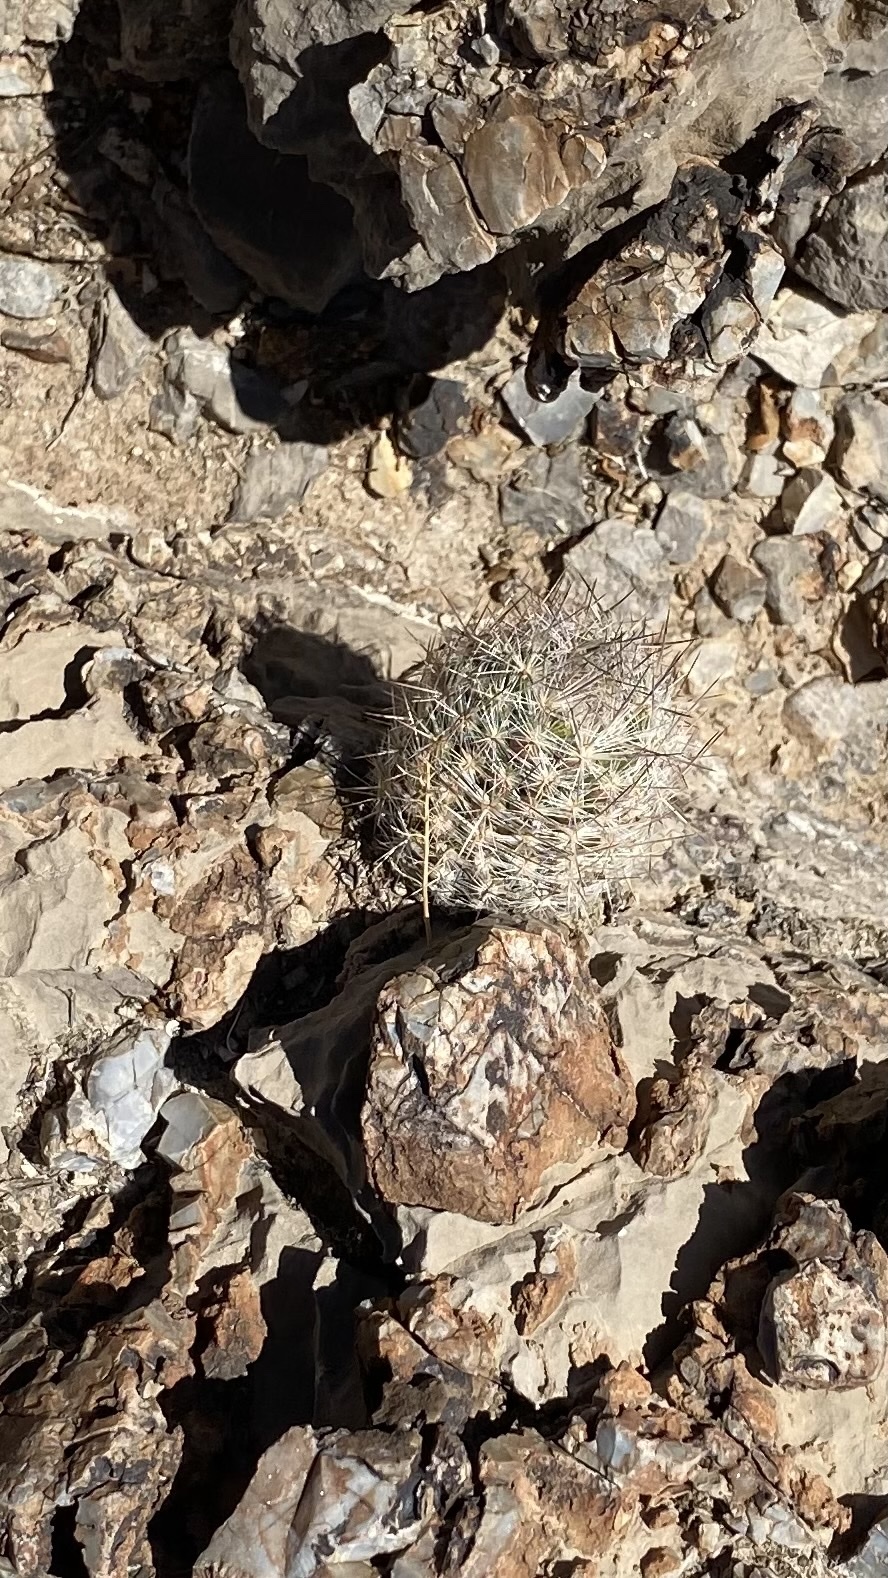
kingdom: Plantae
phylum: Tracheophyta
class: Magnoliopsida
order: Caryophyllales
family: Cactaceae
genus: Pelecyphora
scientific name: Pelecyphora tuberculosa
